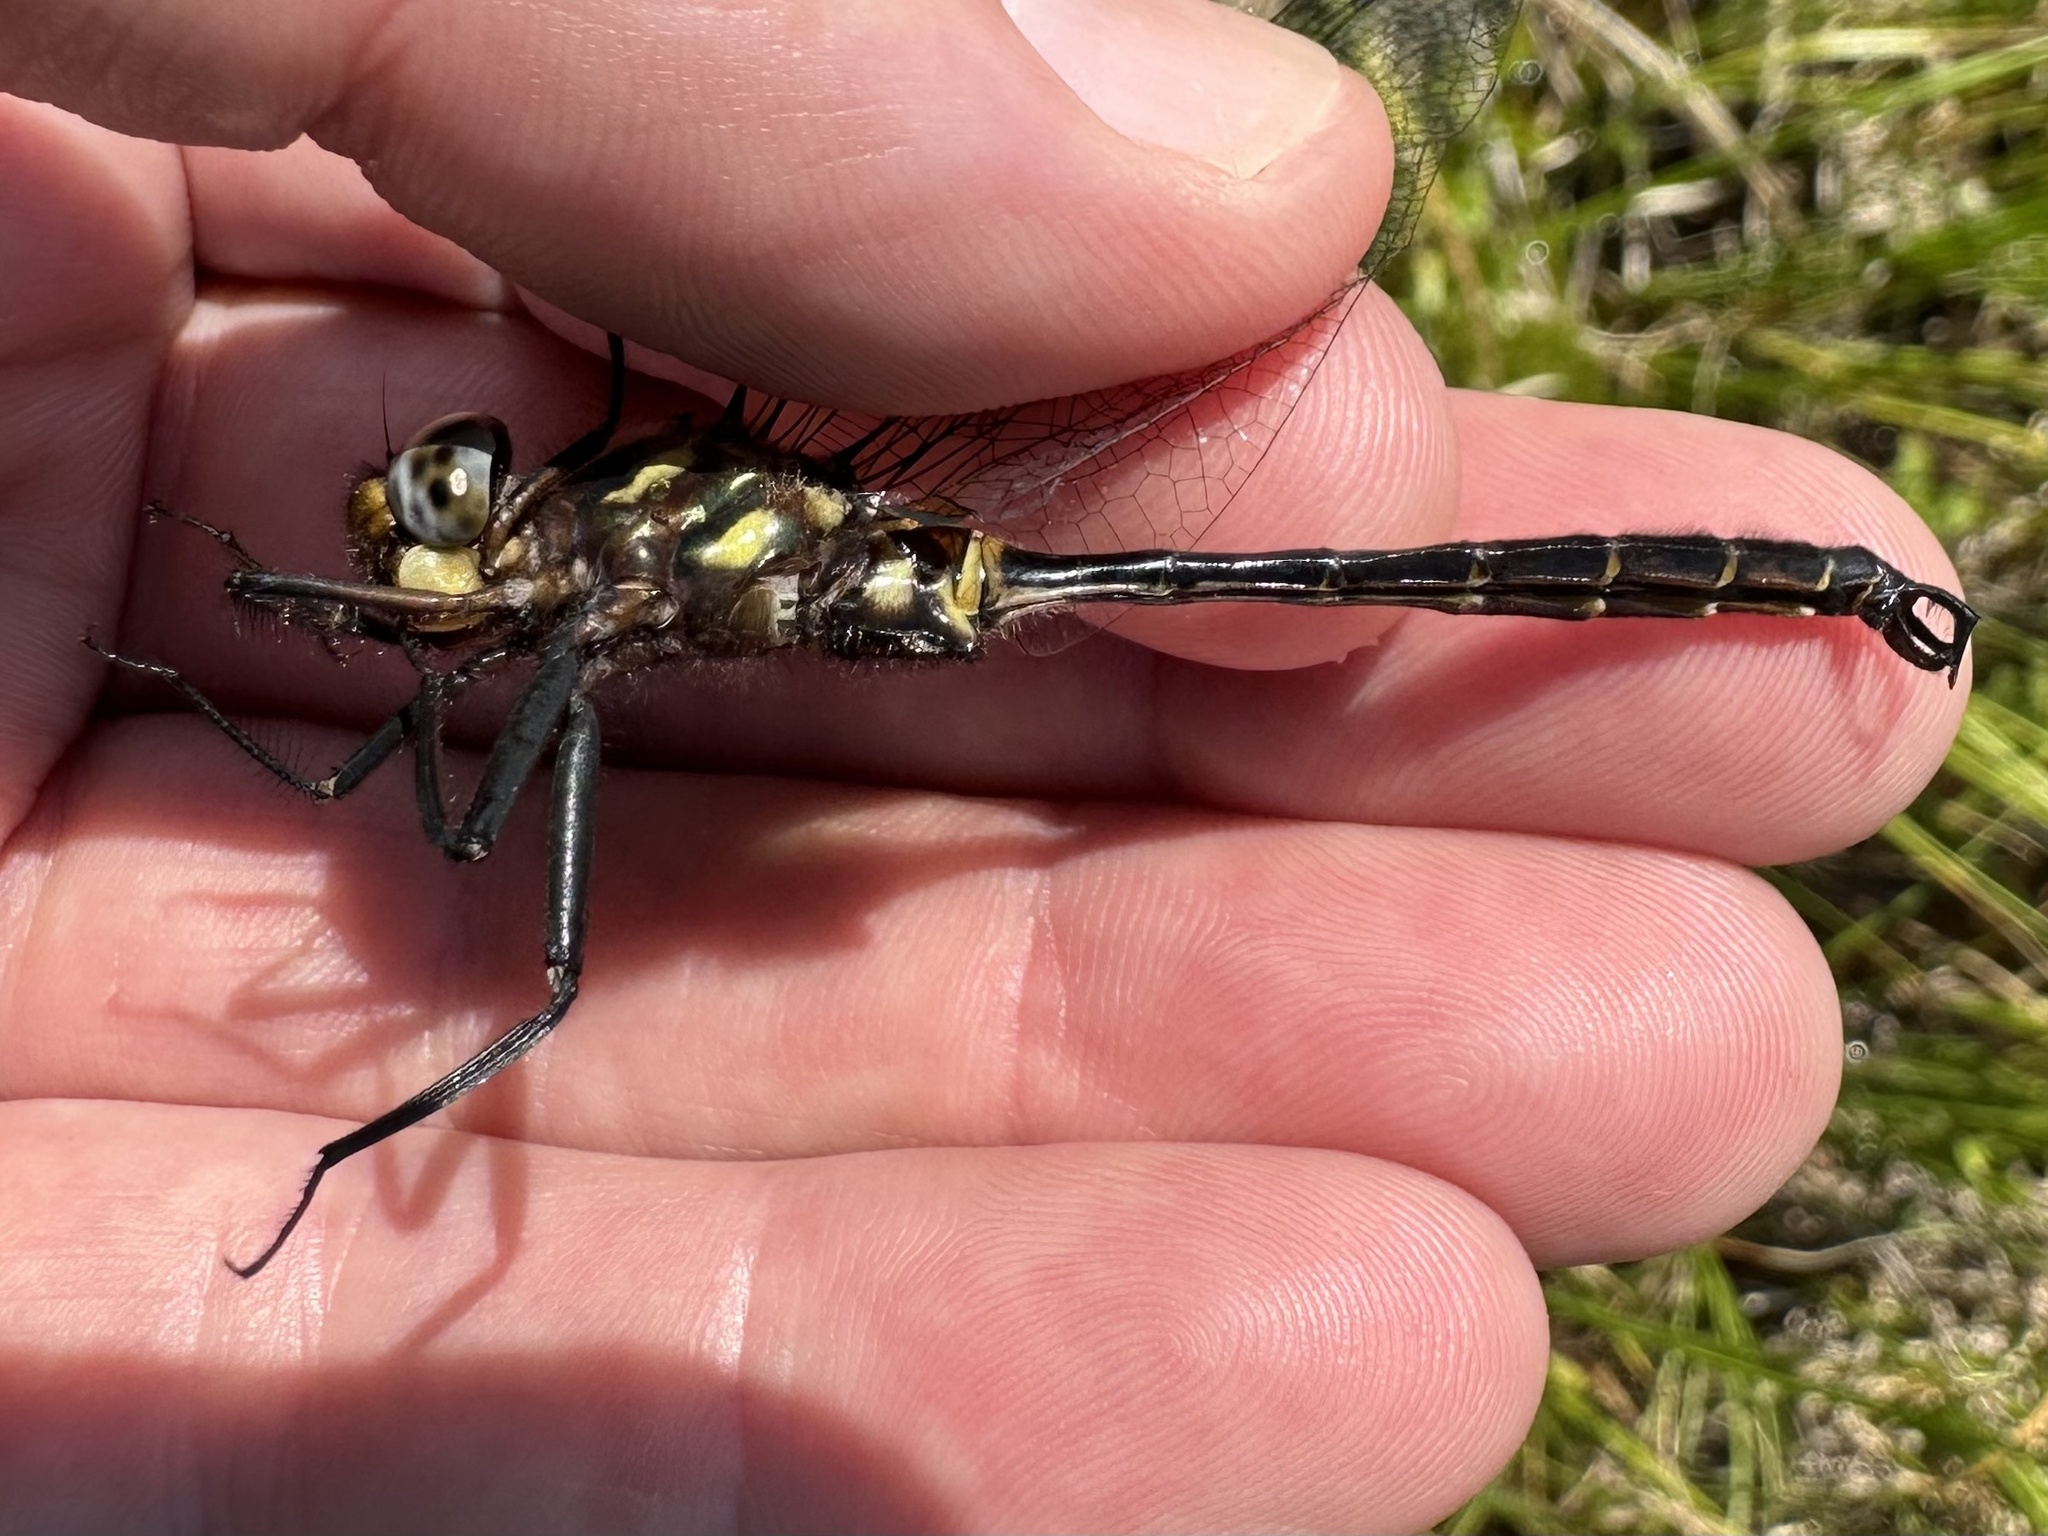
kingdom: Animalia
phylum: Arthropoda
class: Insecta
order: Odonata
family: Corduliidae
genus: Somatochlora
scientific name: Somatochlora tenebrosa
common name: Clamp-tipped emerald
